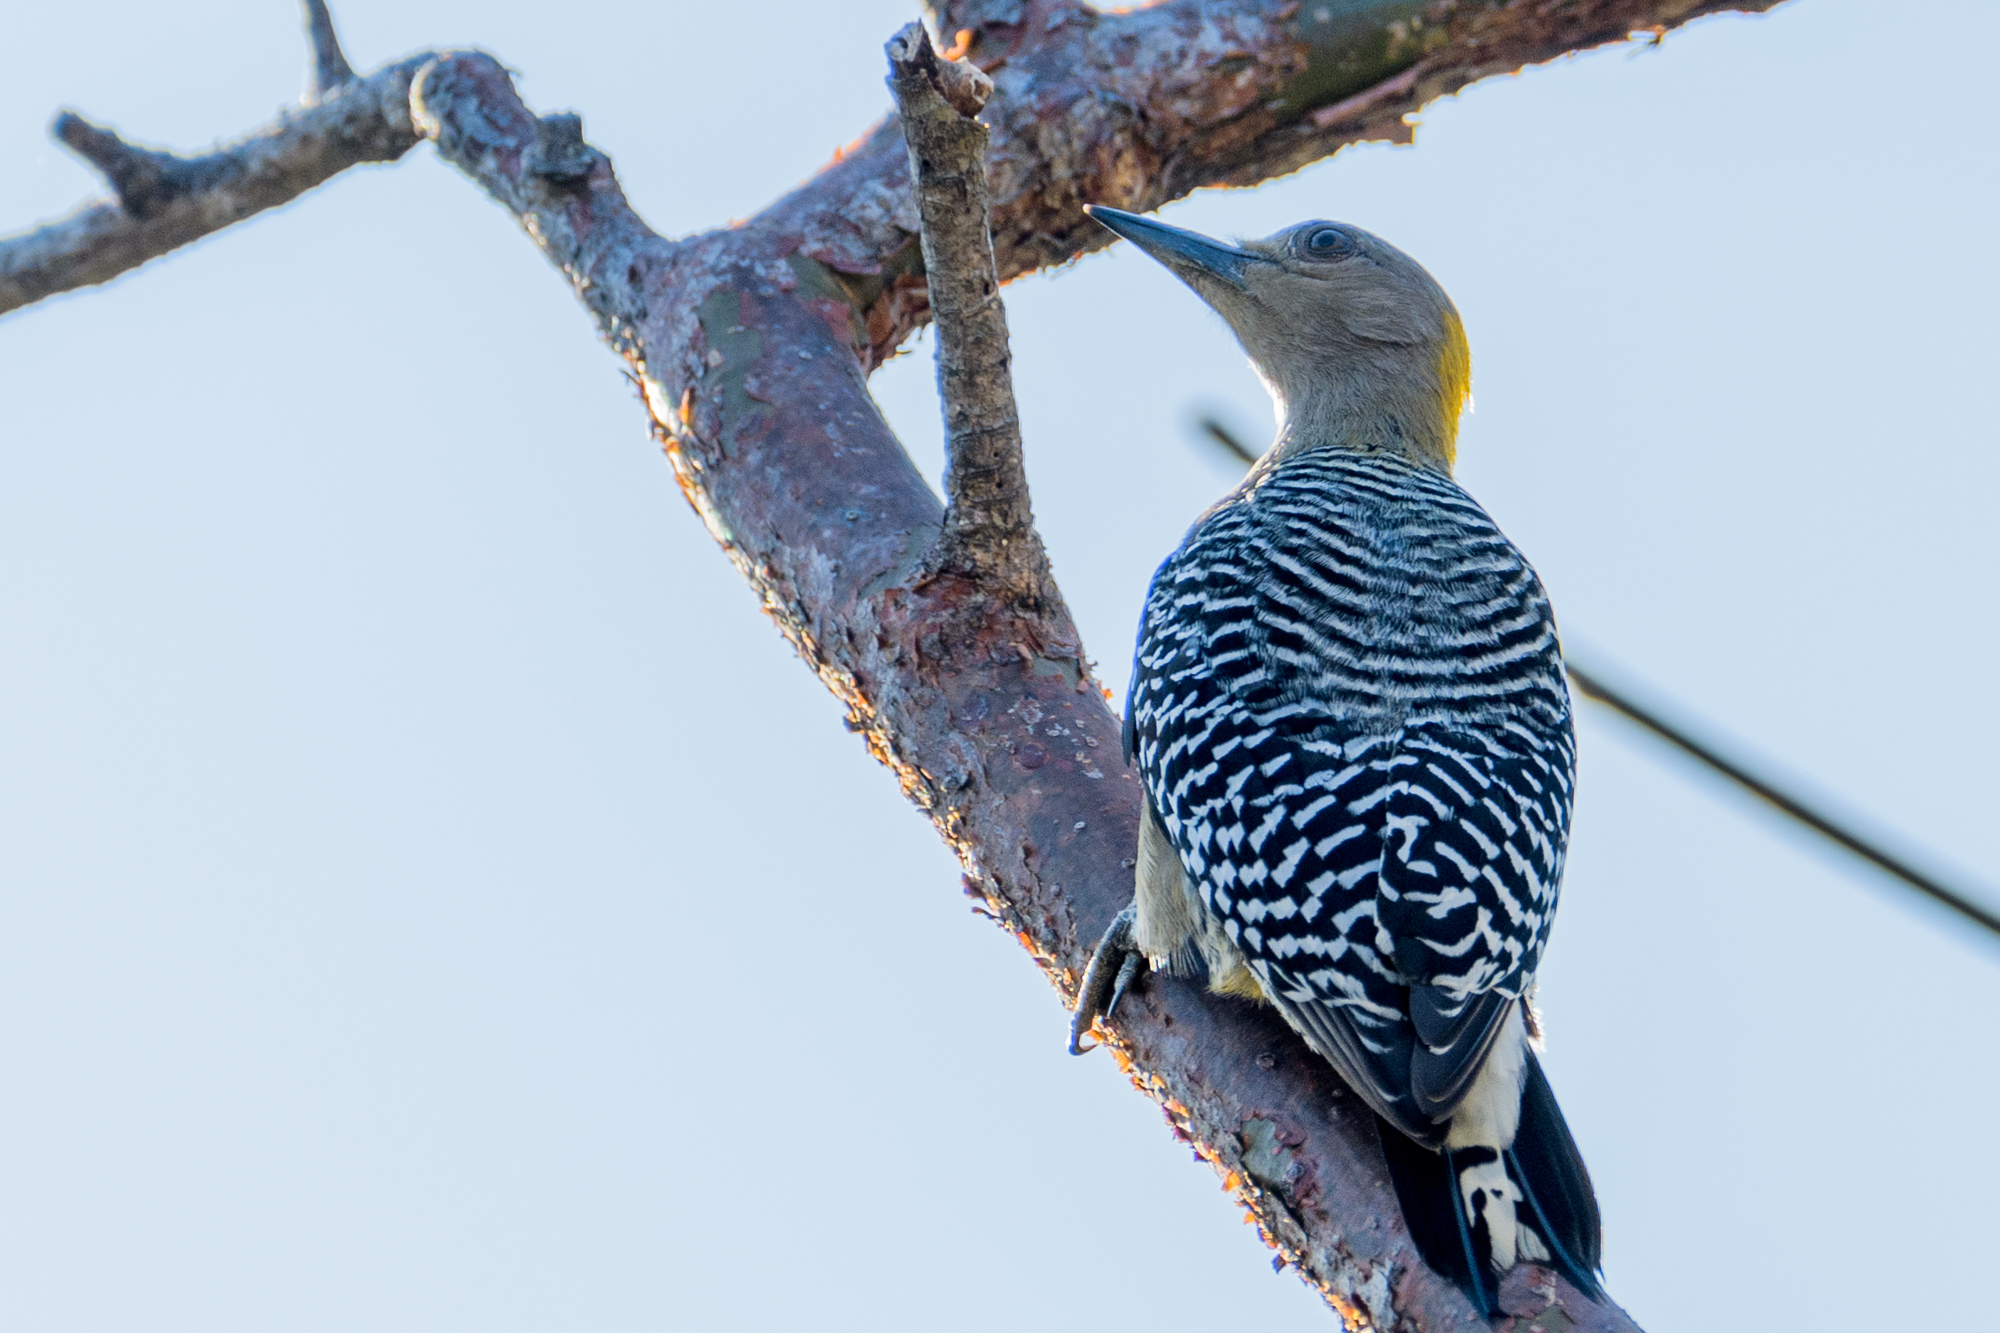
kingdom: Animalia
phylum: Chordata
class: Aves
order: Piciformes
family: Picidae
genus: Melanerpes
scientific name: Melanerpes hoffmannii
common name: Hoffmann's woodpecker
